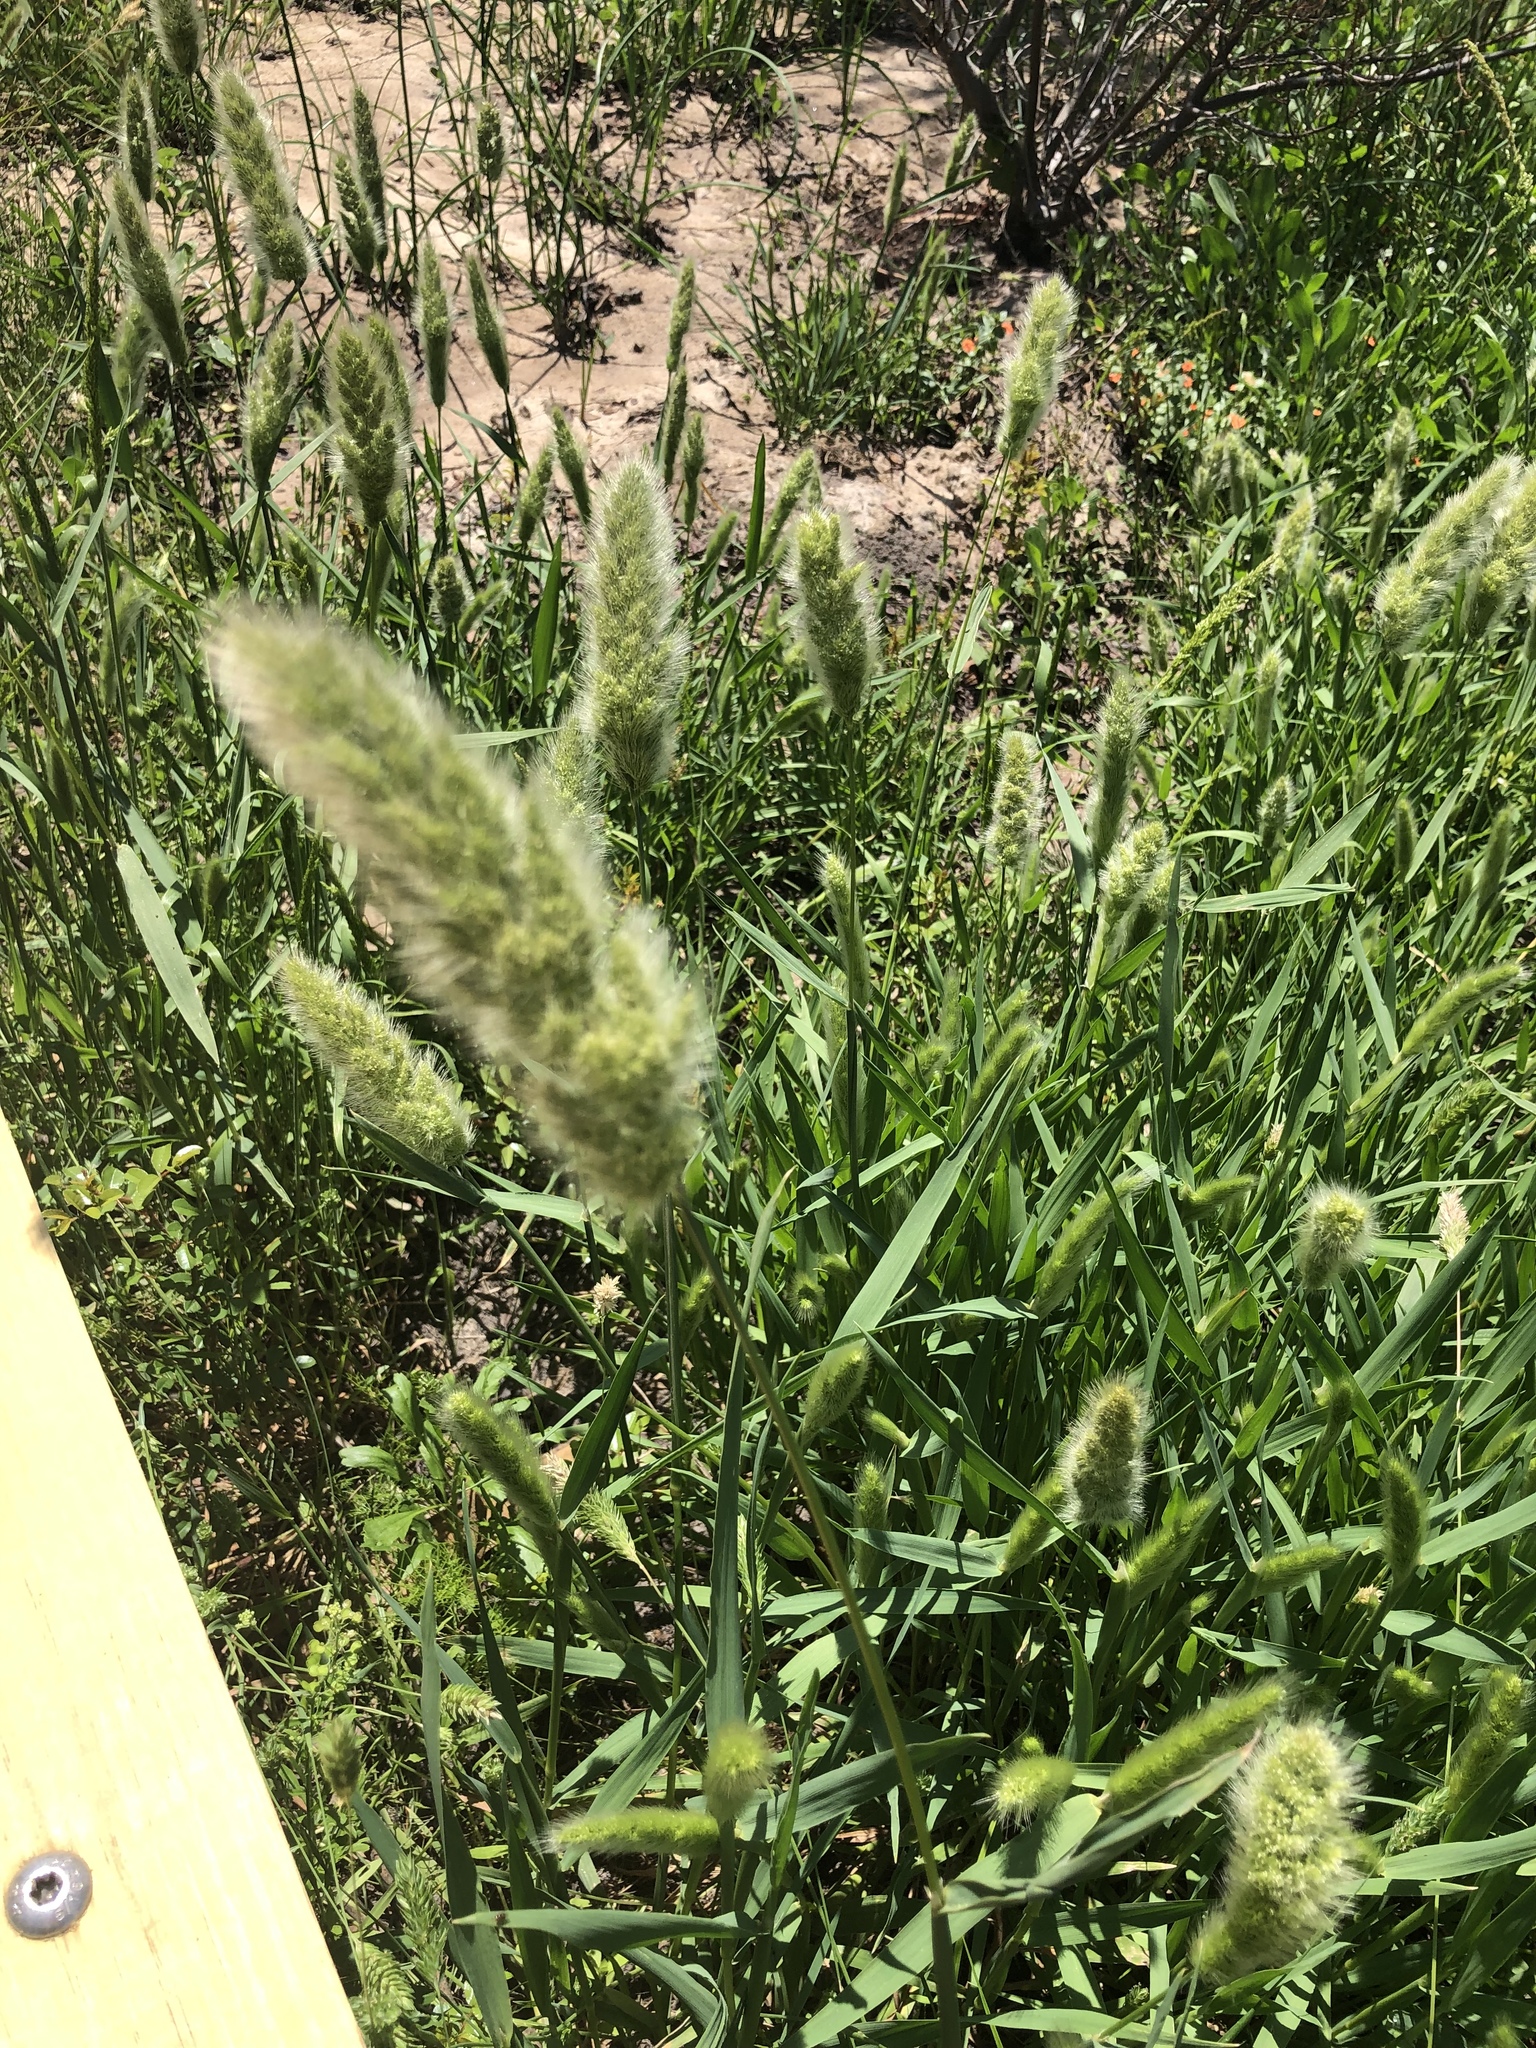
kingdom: Plantae
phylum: Tracheophyta
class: Liliopsida
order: Poales
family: Poaceae
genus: Polypogon
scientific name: Polypogon monspeliensis
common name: Annual rabbitsfoot grass
